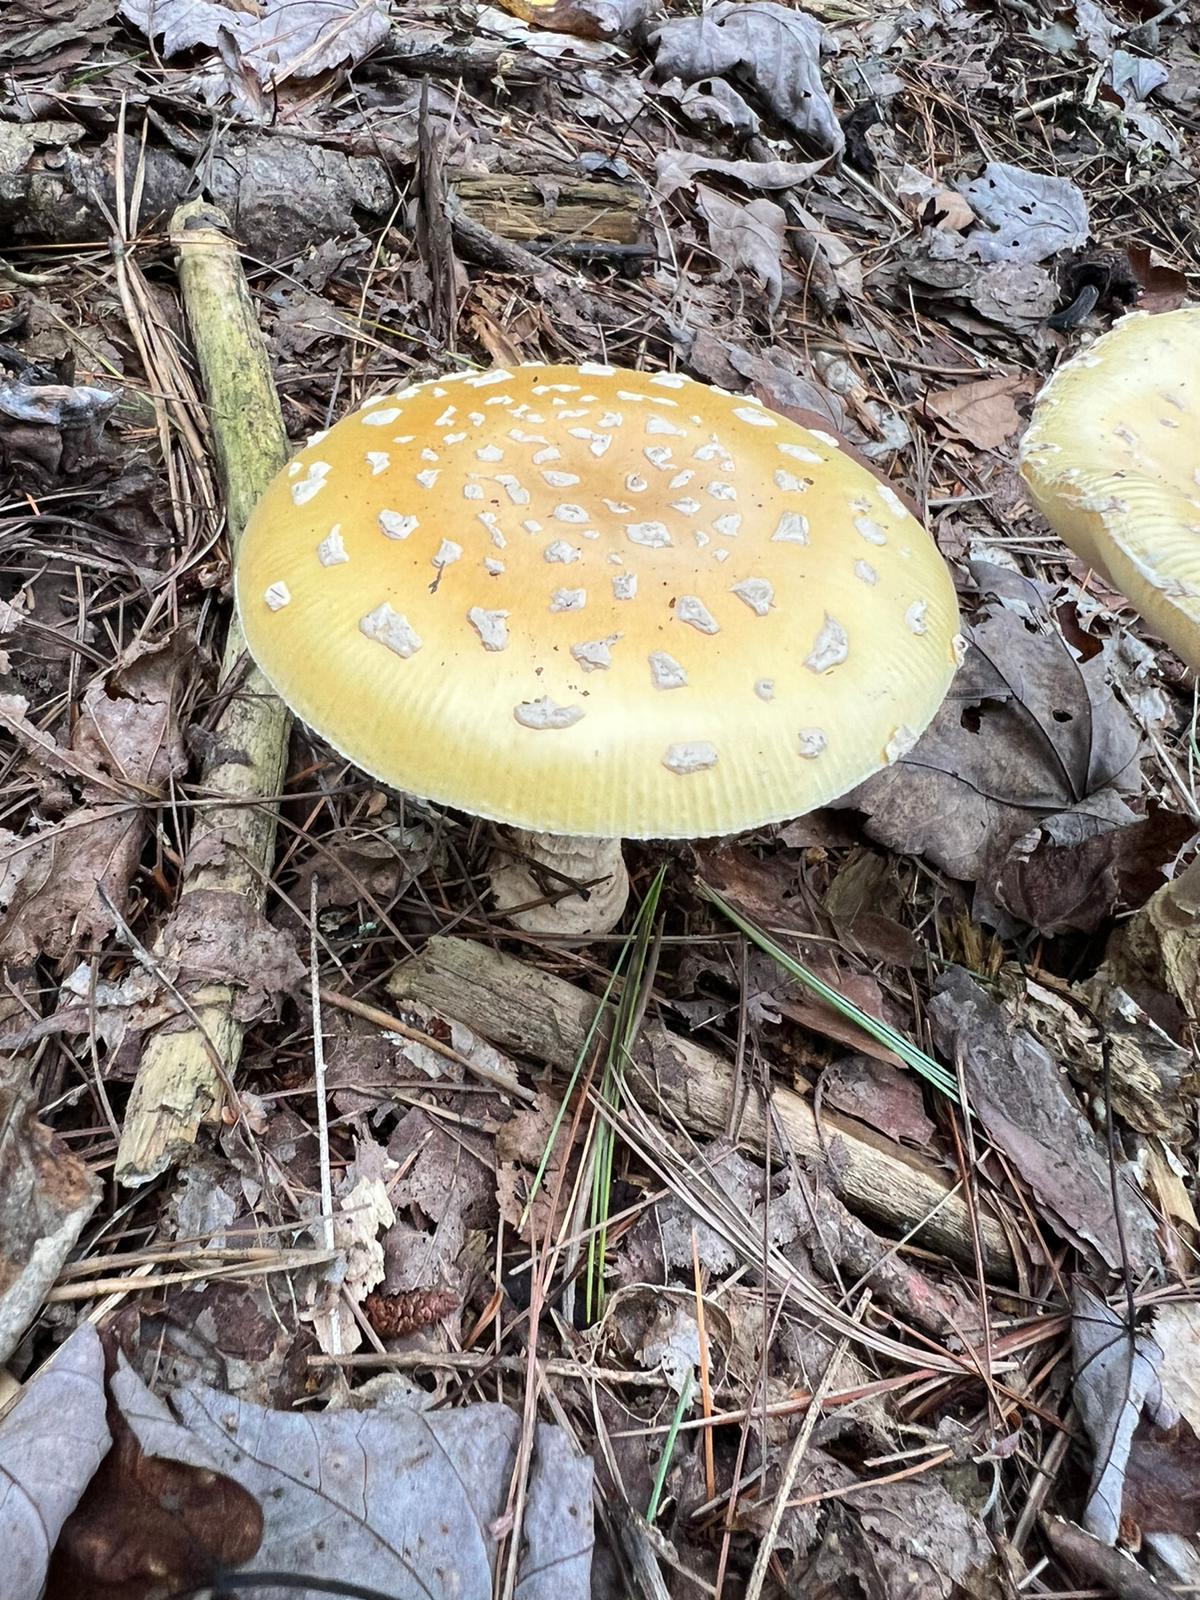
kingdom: Fungi
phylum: Basidiomycota
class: Agaricomycetes
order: Agaricales
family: Amanitaceae
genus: Amanita
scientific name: Amanita muscaria
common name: Fly agaric
